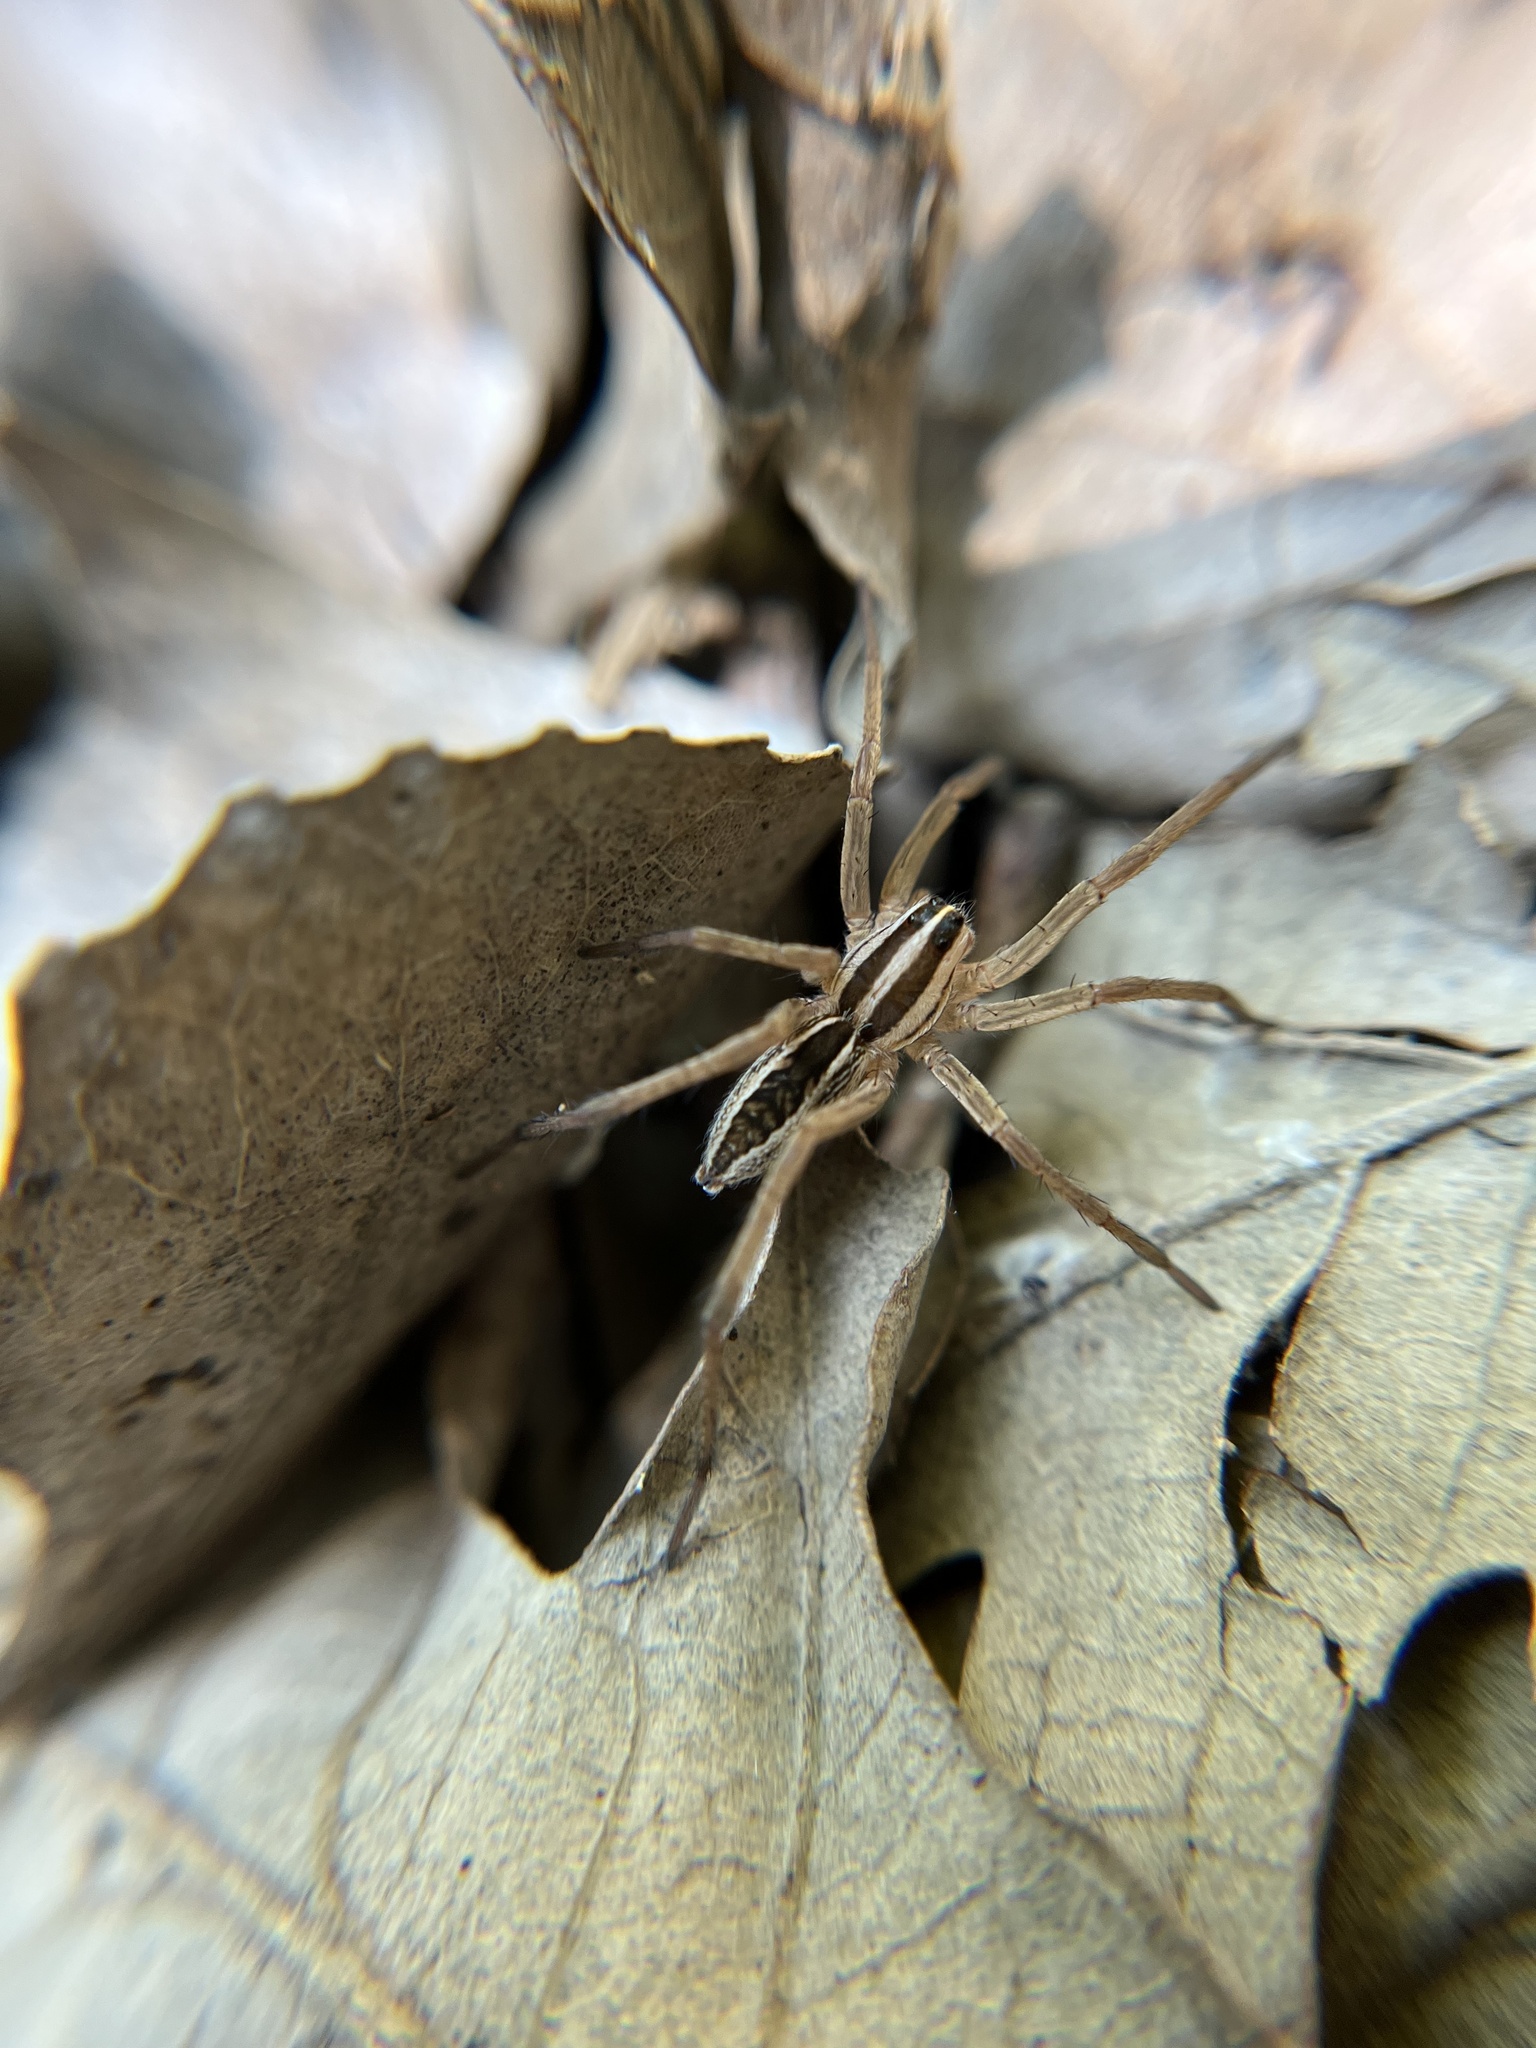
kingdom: Animalia
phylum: Arthropoda
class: Arachnida
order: Araneae
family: Lycosidae
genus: Rabidosa
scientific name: Rabidosa rabida
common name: Rabid wolf spider
